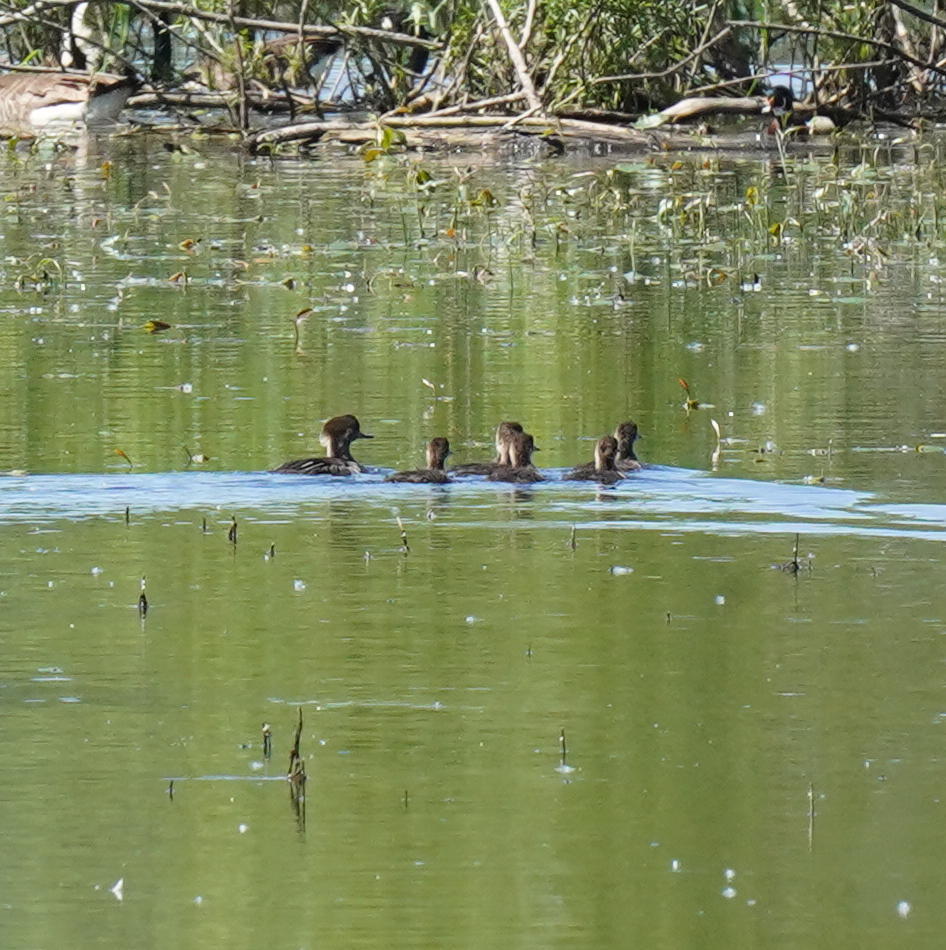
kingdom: Animalia
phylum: Chordata
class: Aves
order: Anseriformes
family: Anatidae
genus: Lophodytes
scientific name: Lophodytes cucullatus
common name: Hooded merganser
